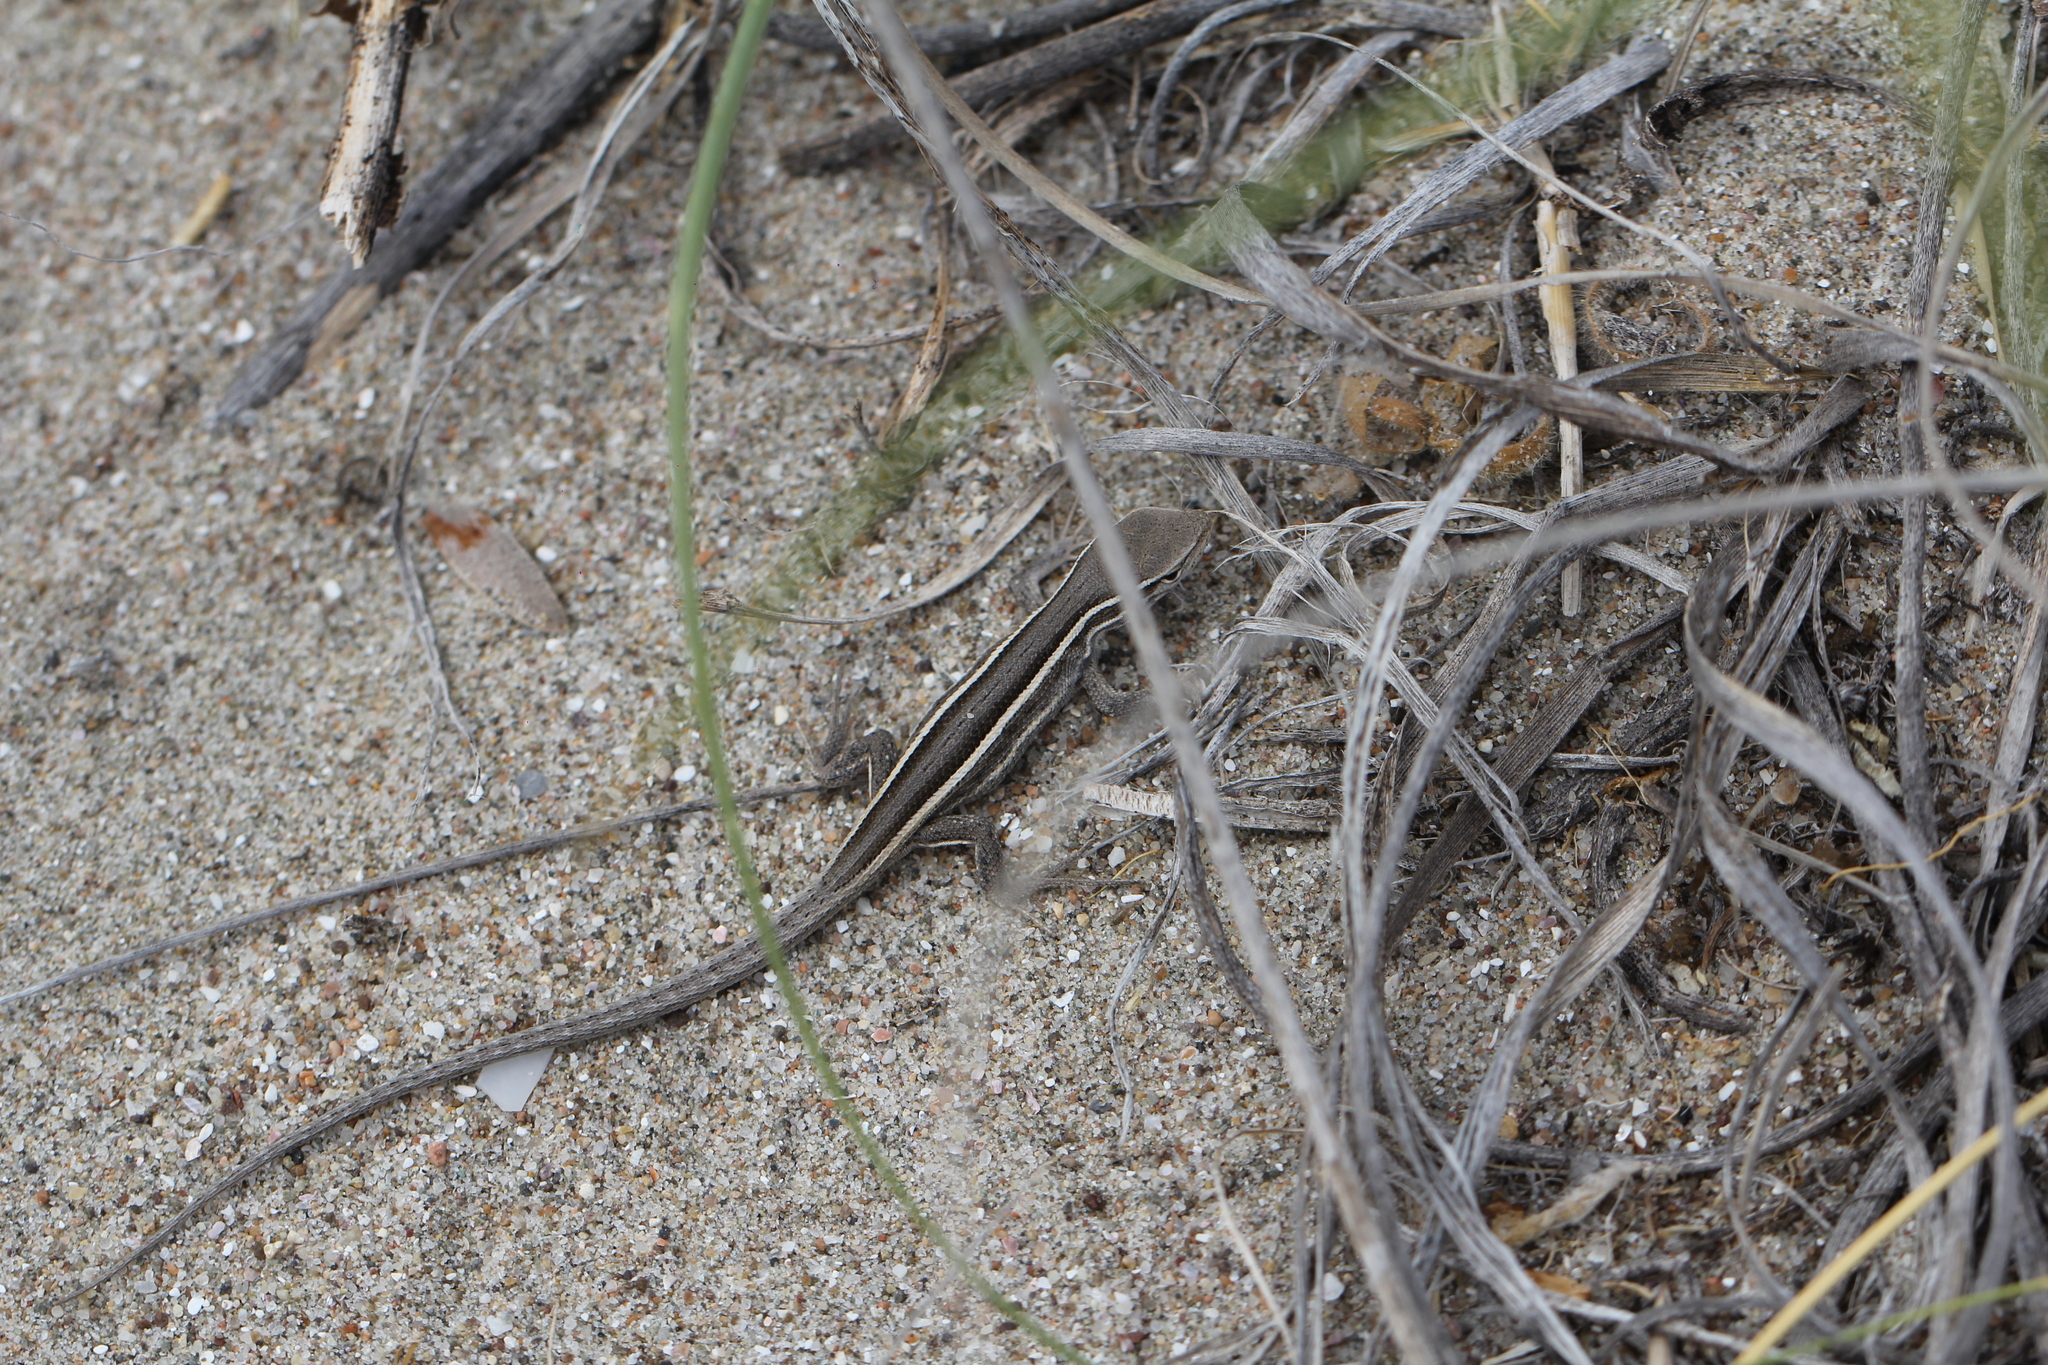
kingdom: Animalia
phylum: Chordata
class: Squamata
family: Liolaemidae
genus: Liolaemus
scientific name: Liolaemus gracilis
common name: Graceful tree iguana
